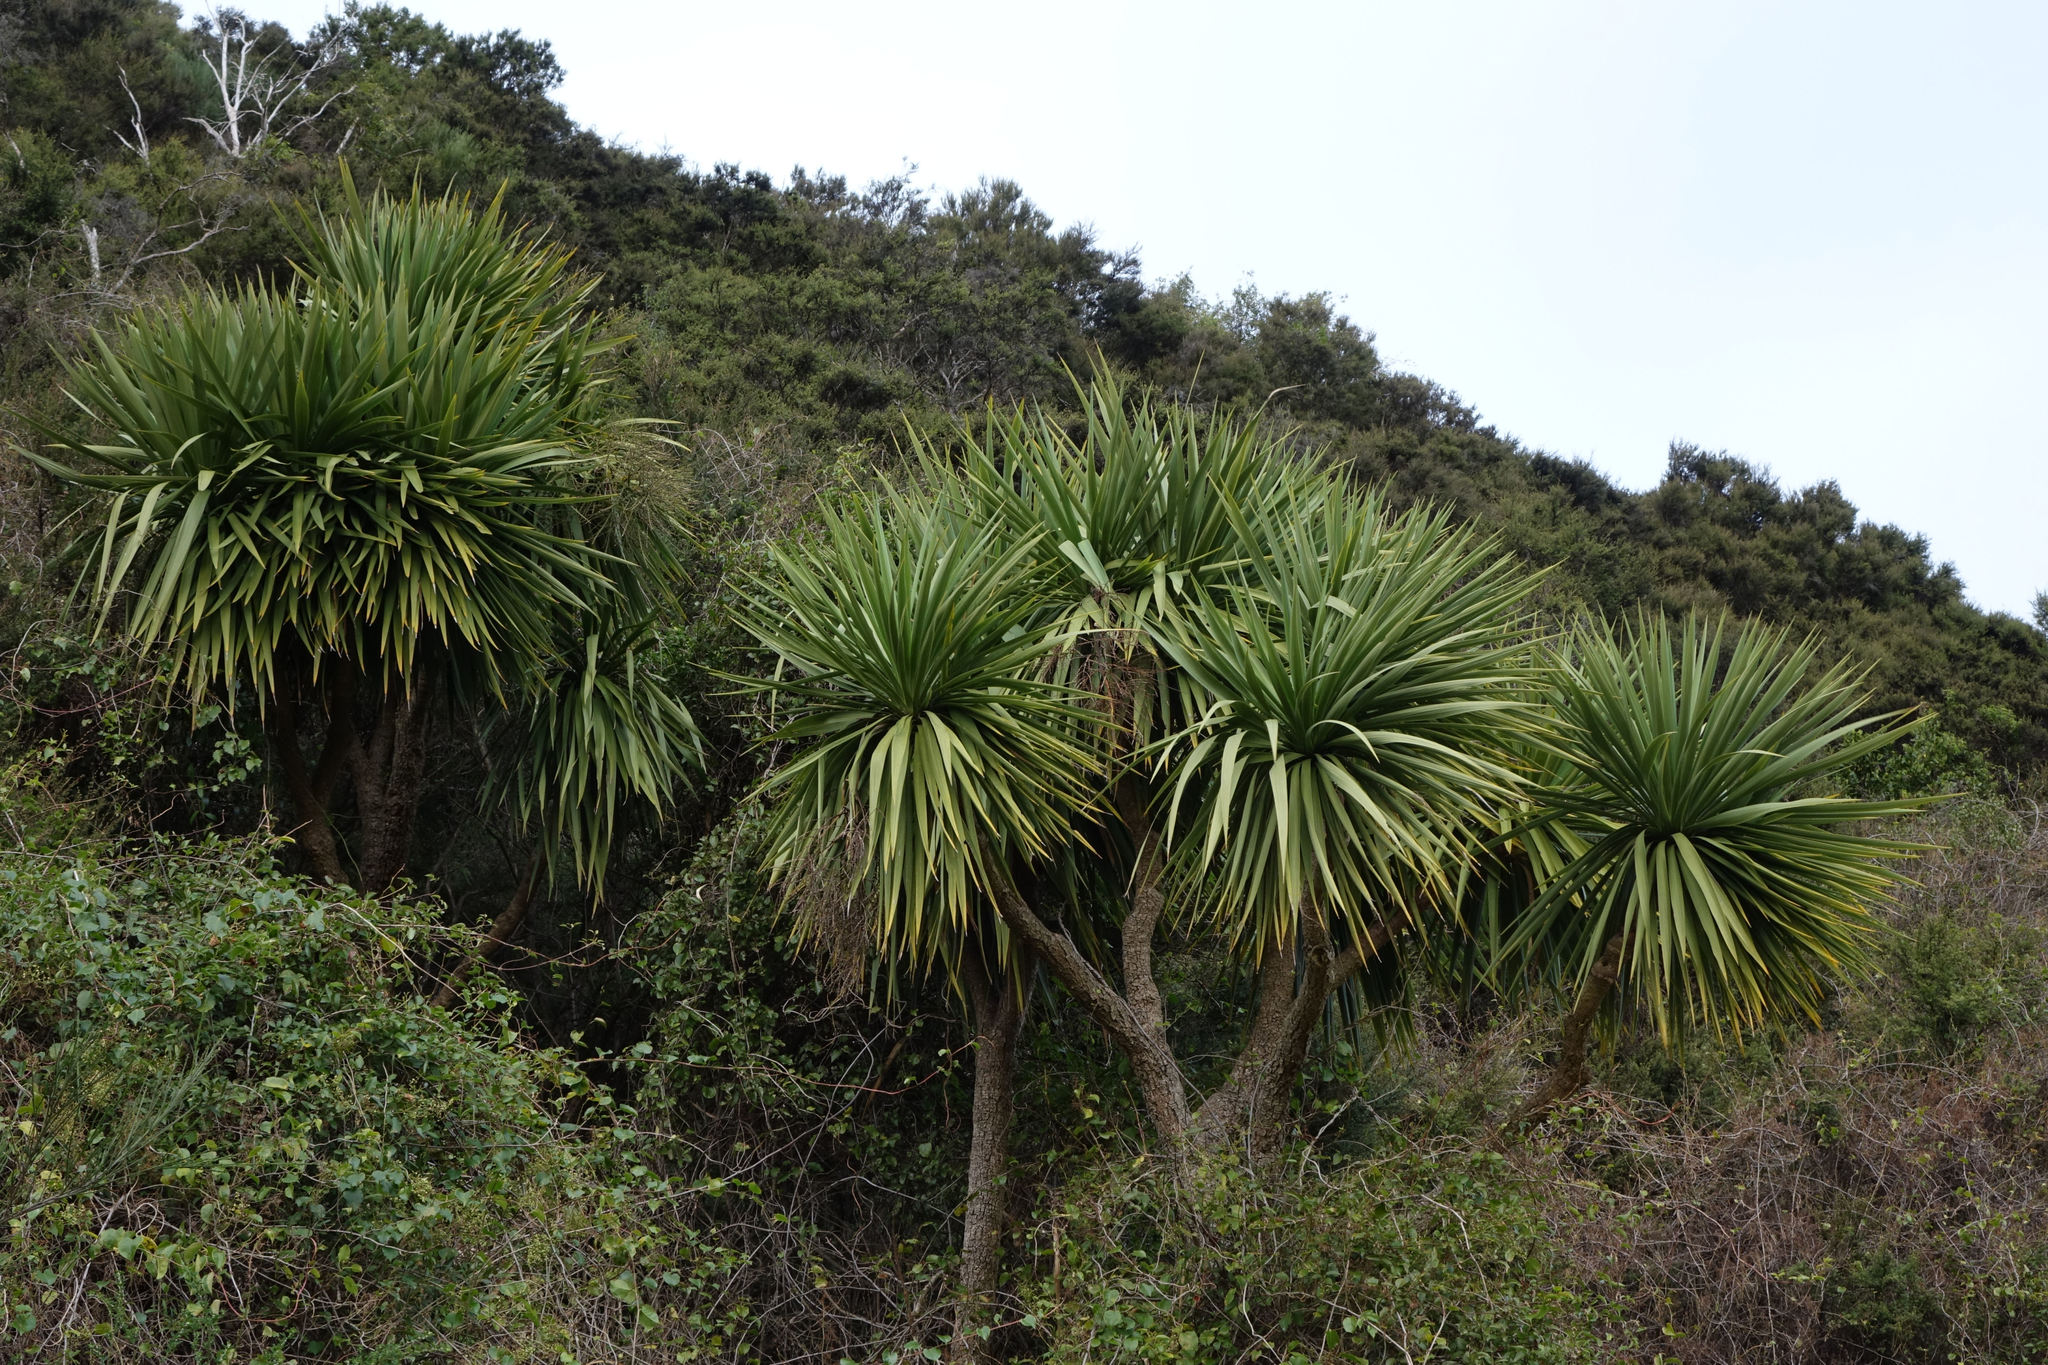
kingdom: Plantae
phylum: Tracheophyta
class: Liliopsida
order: Asparagales
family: Asparagaceae
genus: Cordyline
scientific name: Cordyline australis
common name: Cabbage-palm
